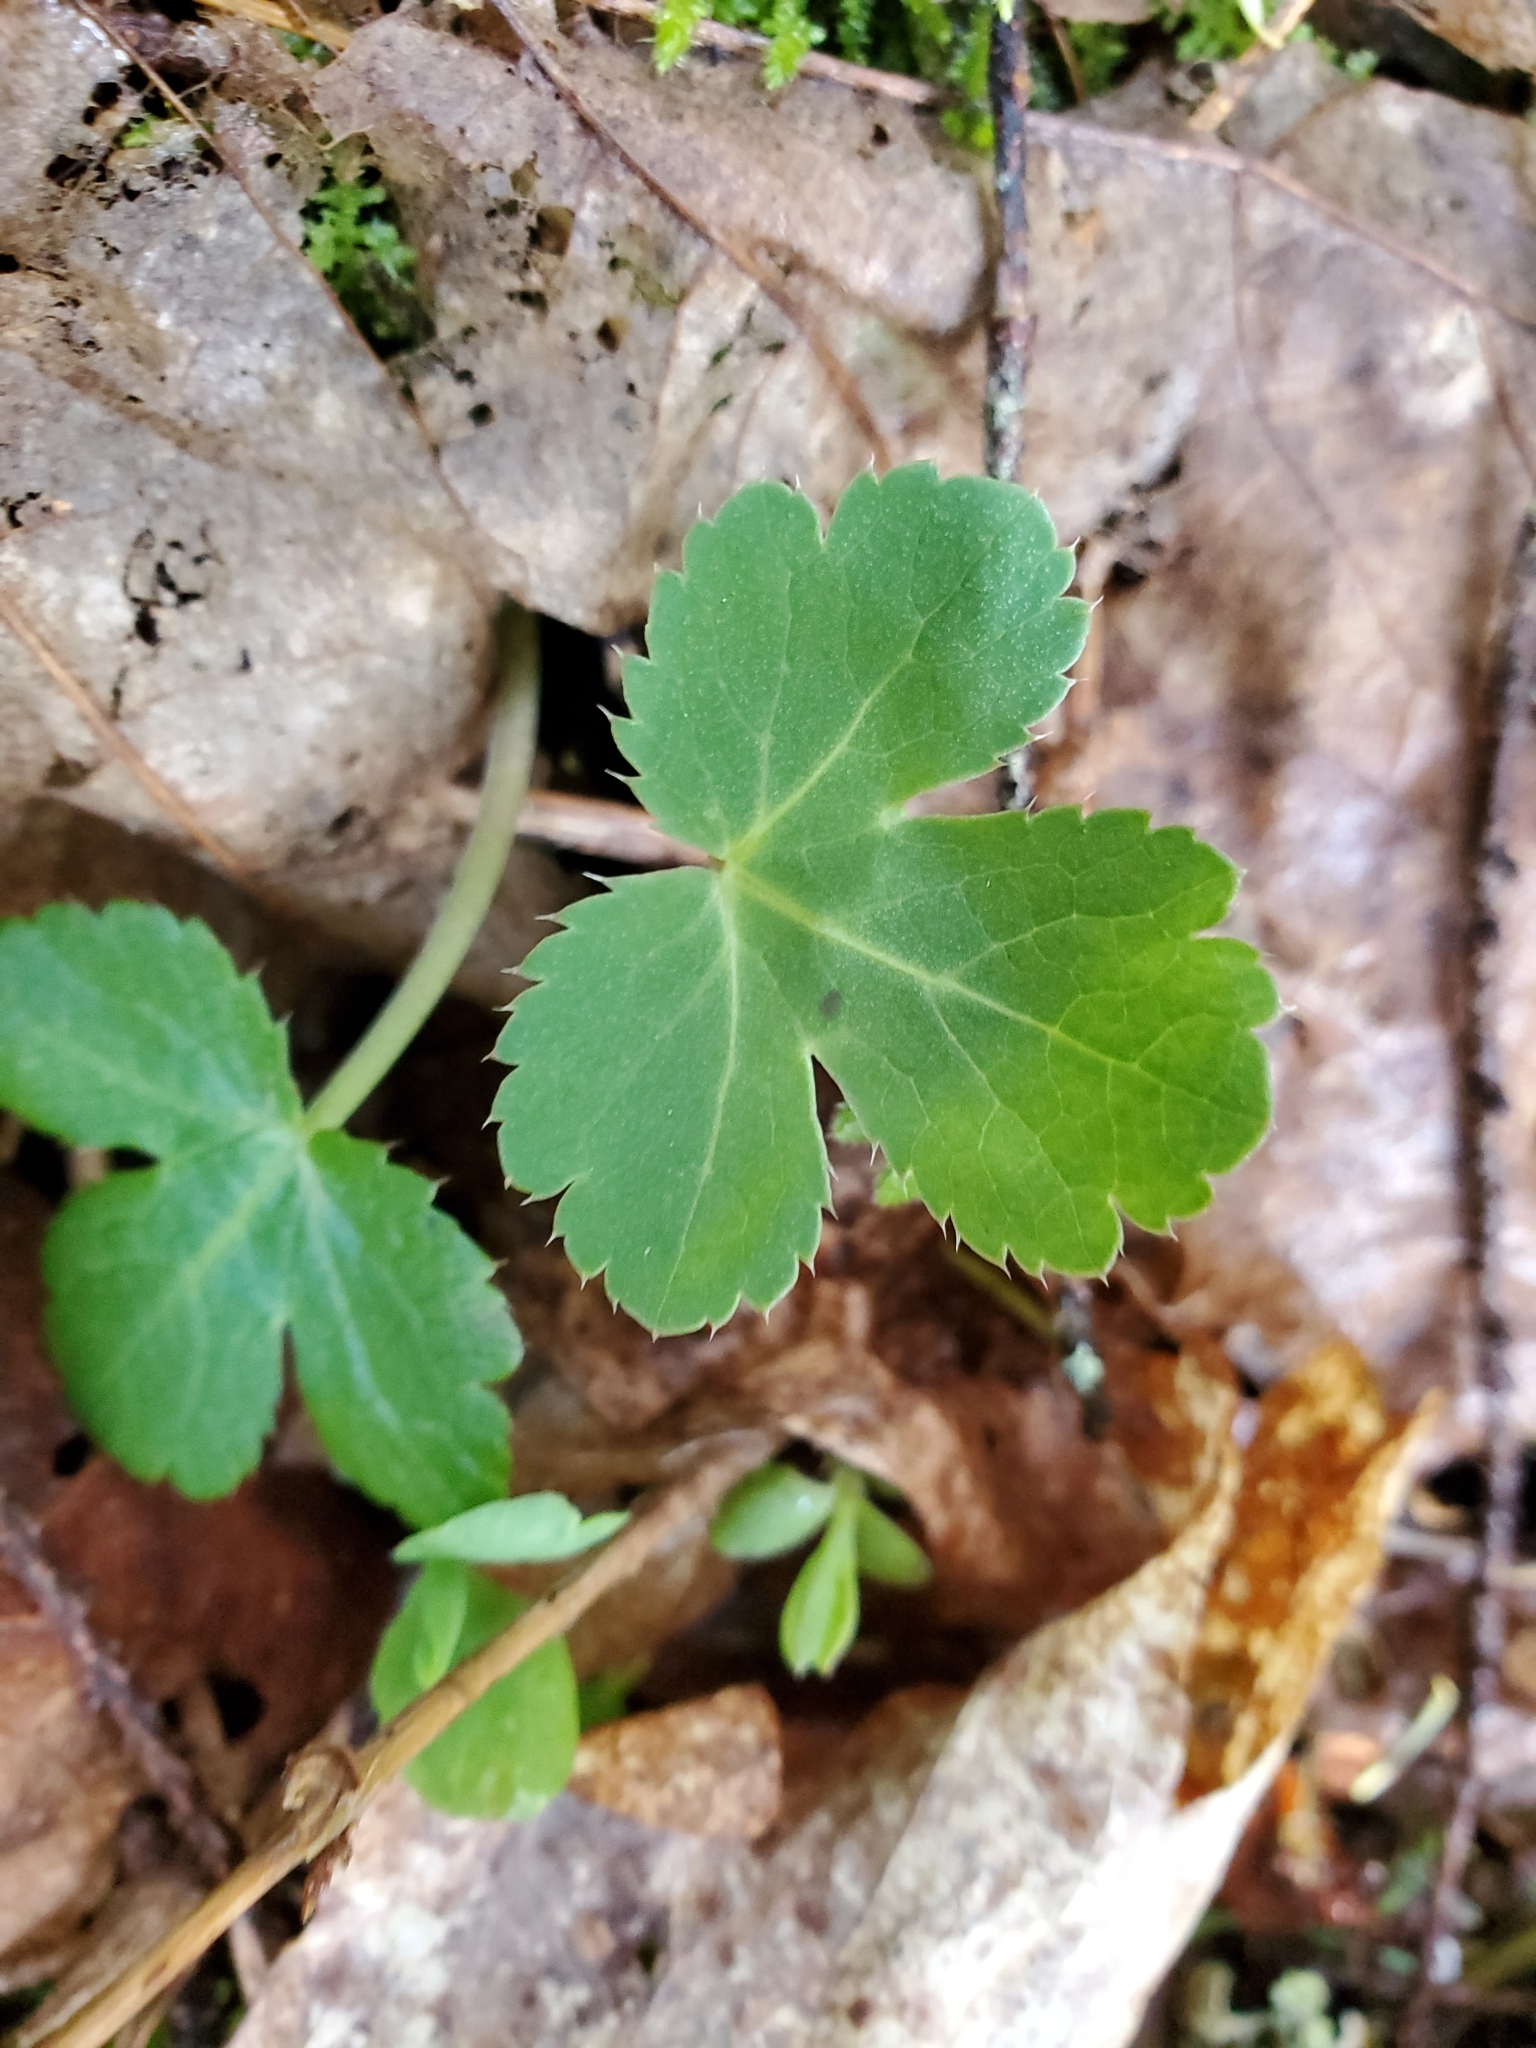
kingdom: Plantae
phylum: Tracheophyta
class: Magnoliopsida
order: Apiales
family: Apiaceae
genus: Sanicula
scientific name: Sanicula crassicaulis
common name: Western snakeroot
